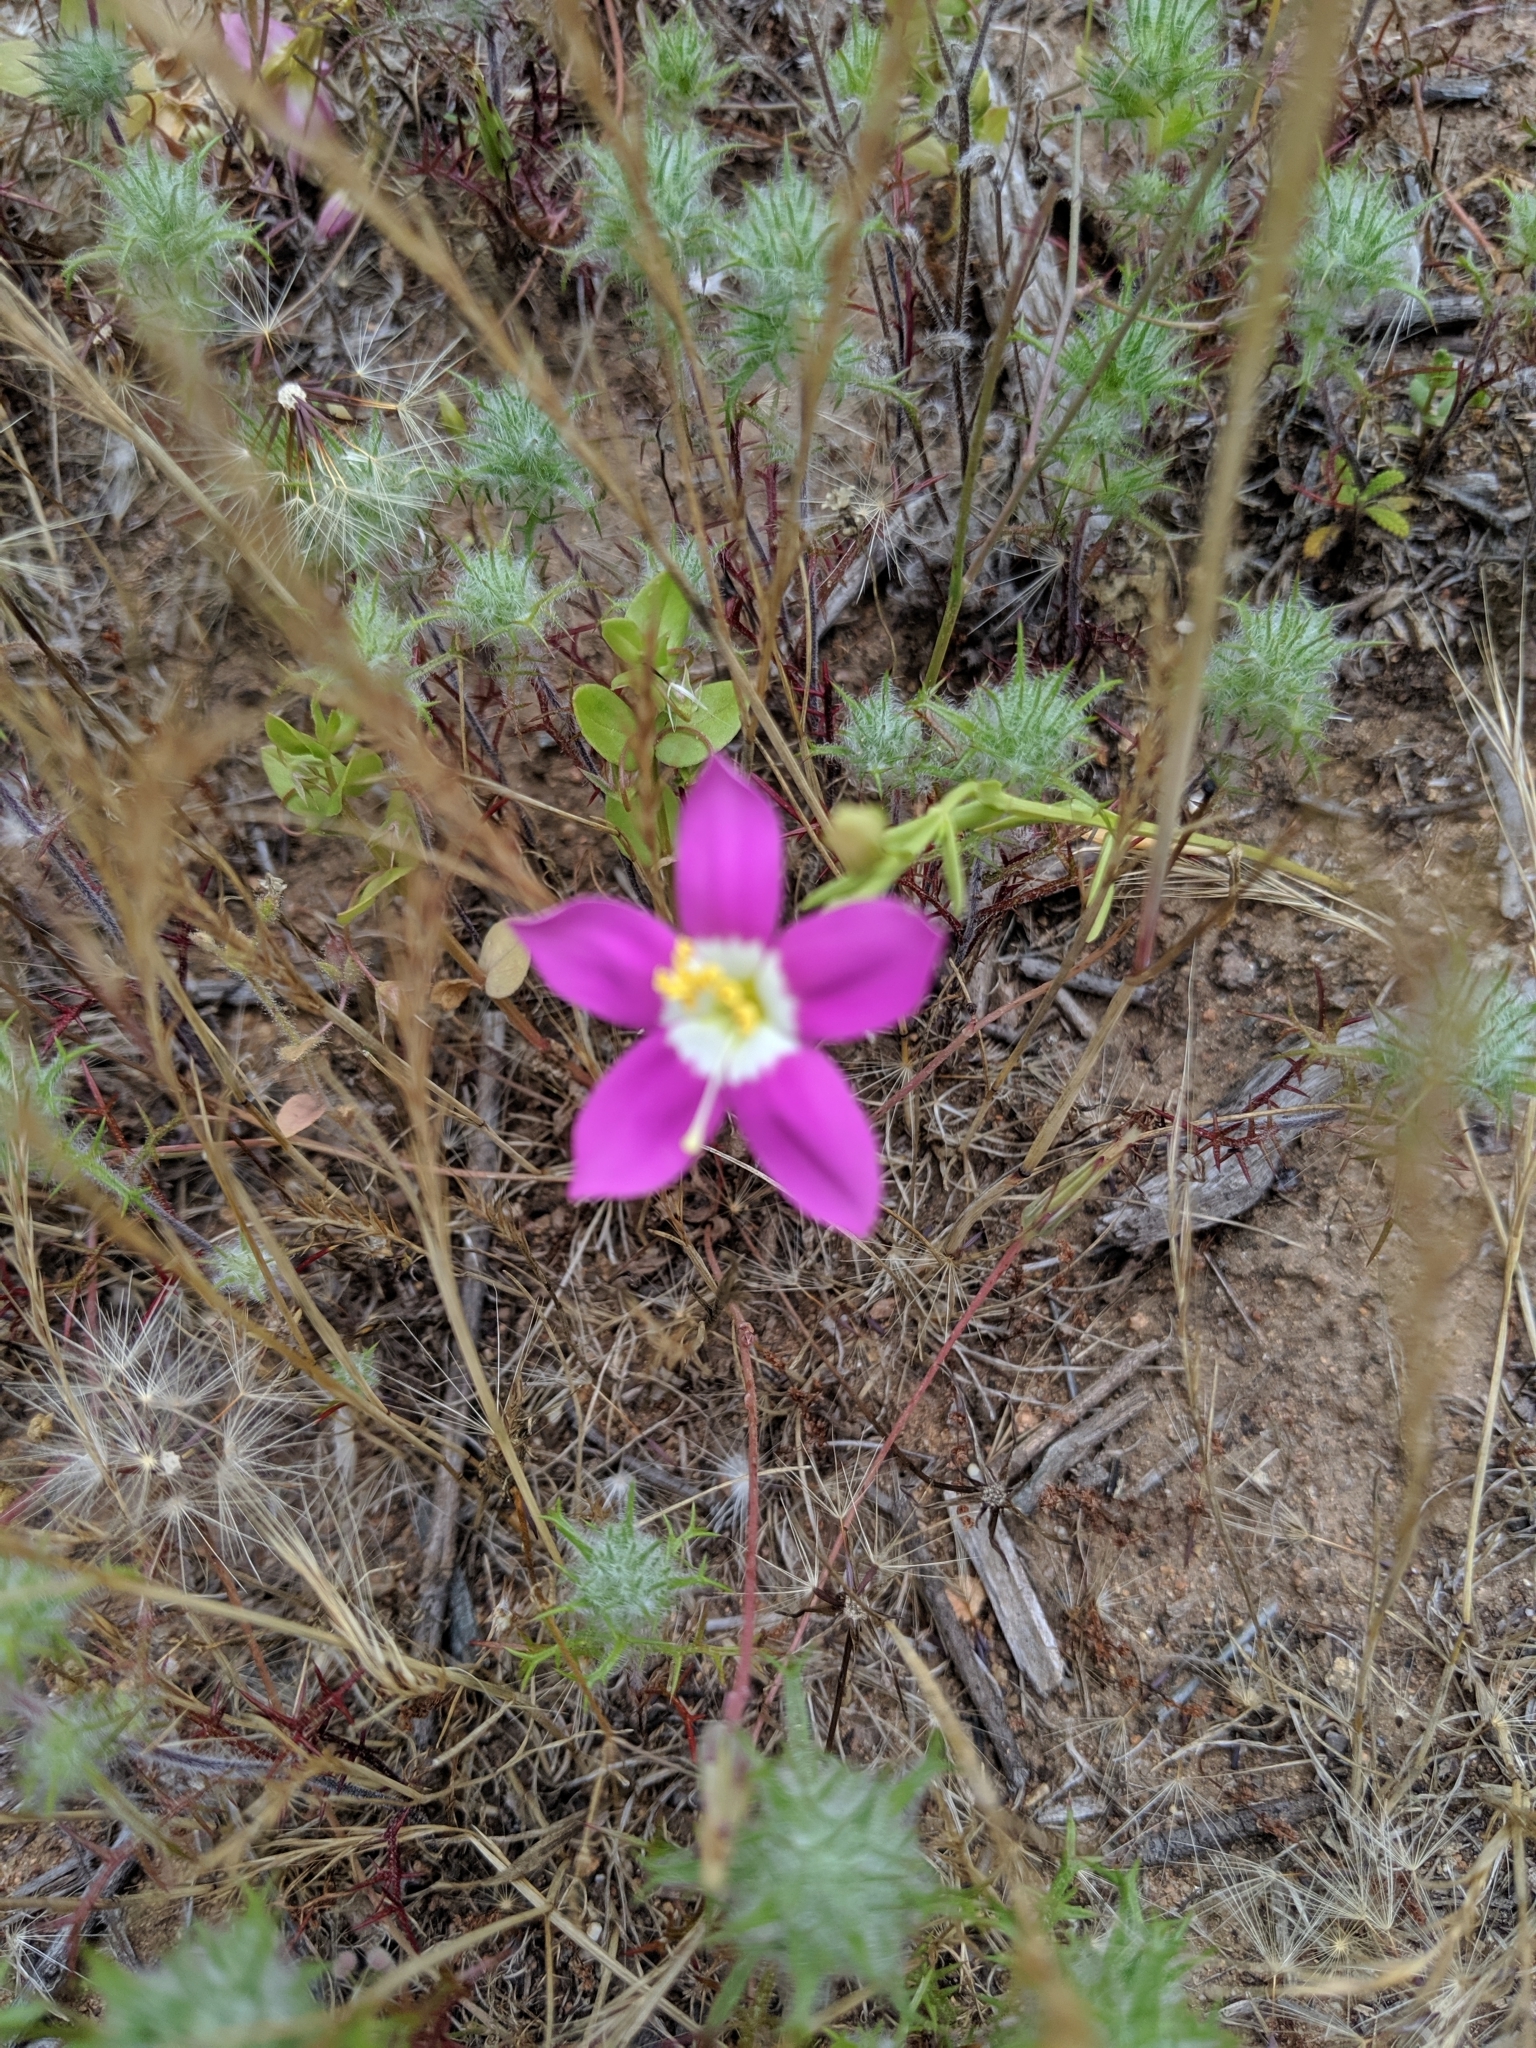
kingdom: Plantae
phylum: Tracheophyta
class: Magnoliopsida
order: Gentianales
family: Gentianaceae
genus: Zeltnera
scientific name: Zeltnera venusta
